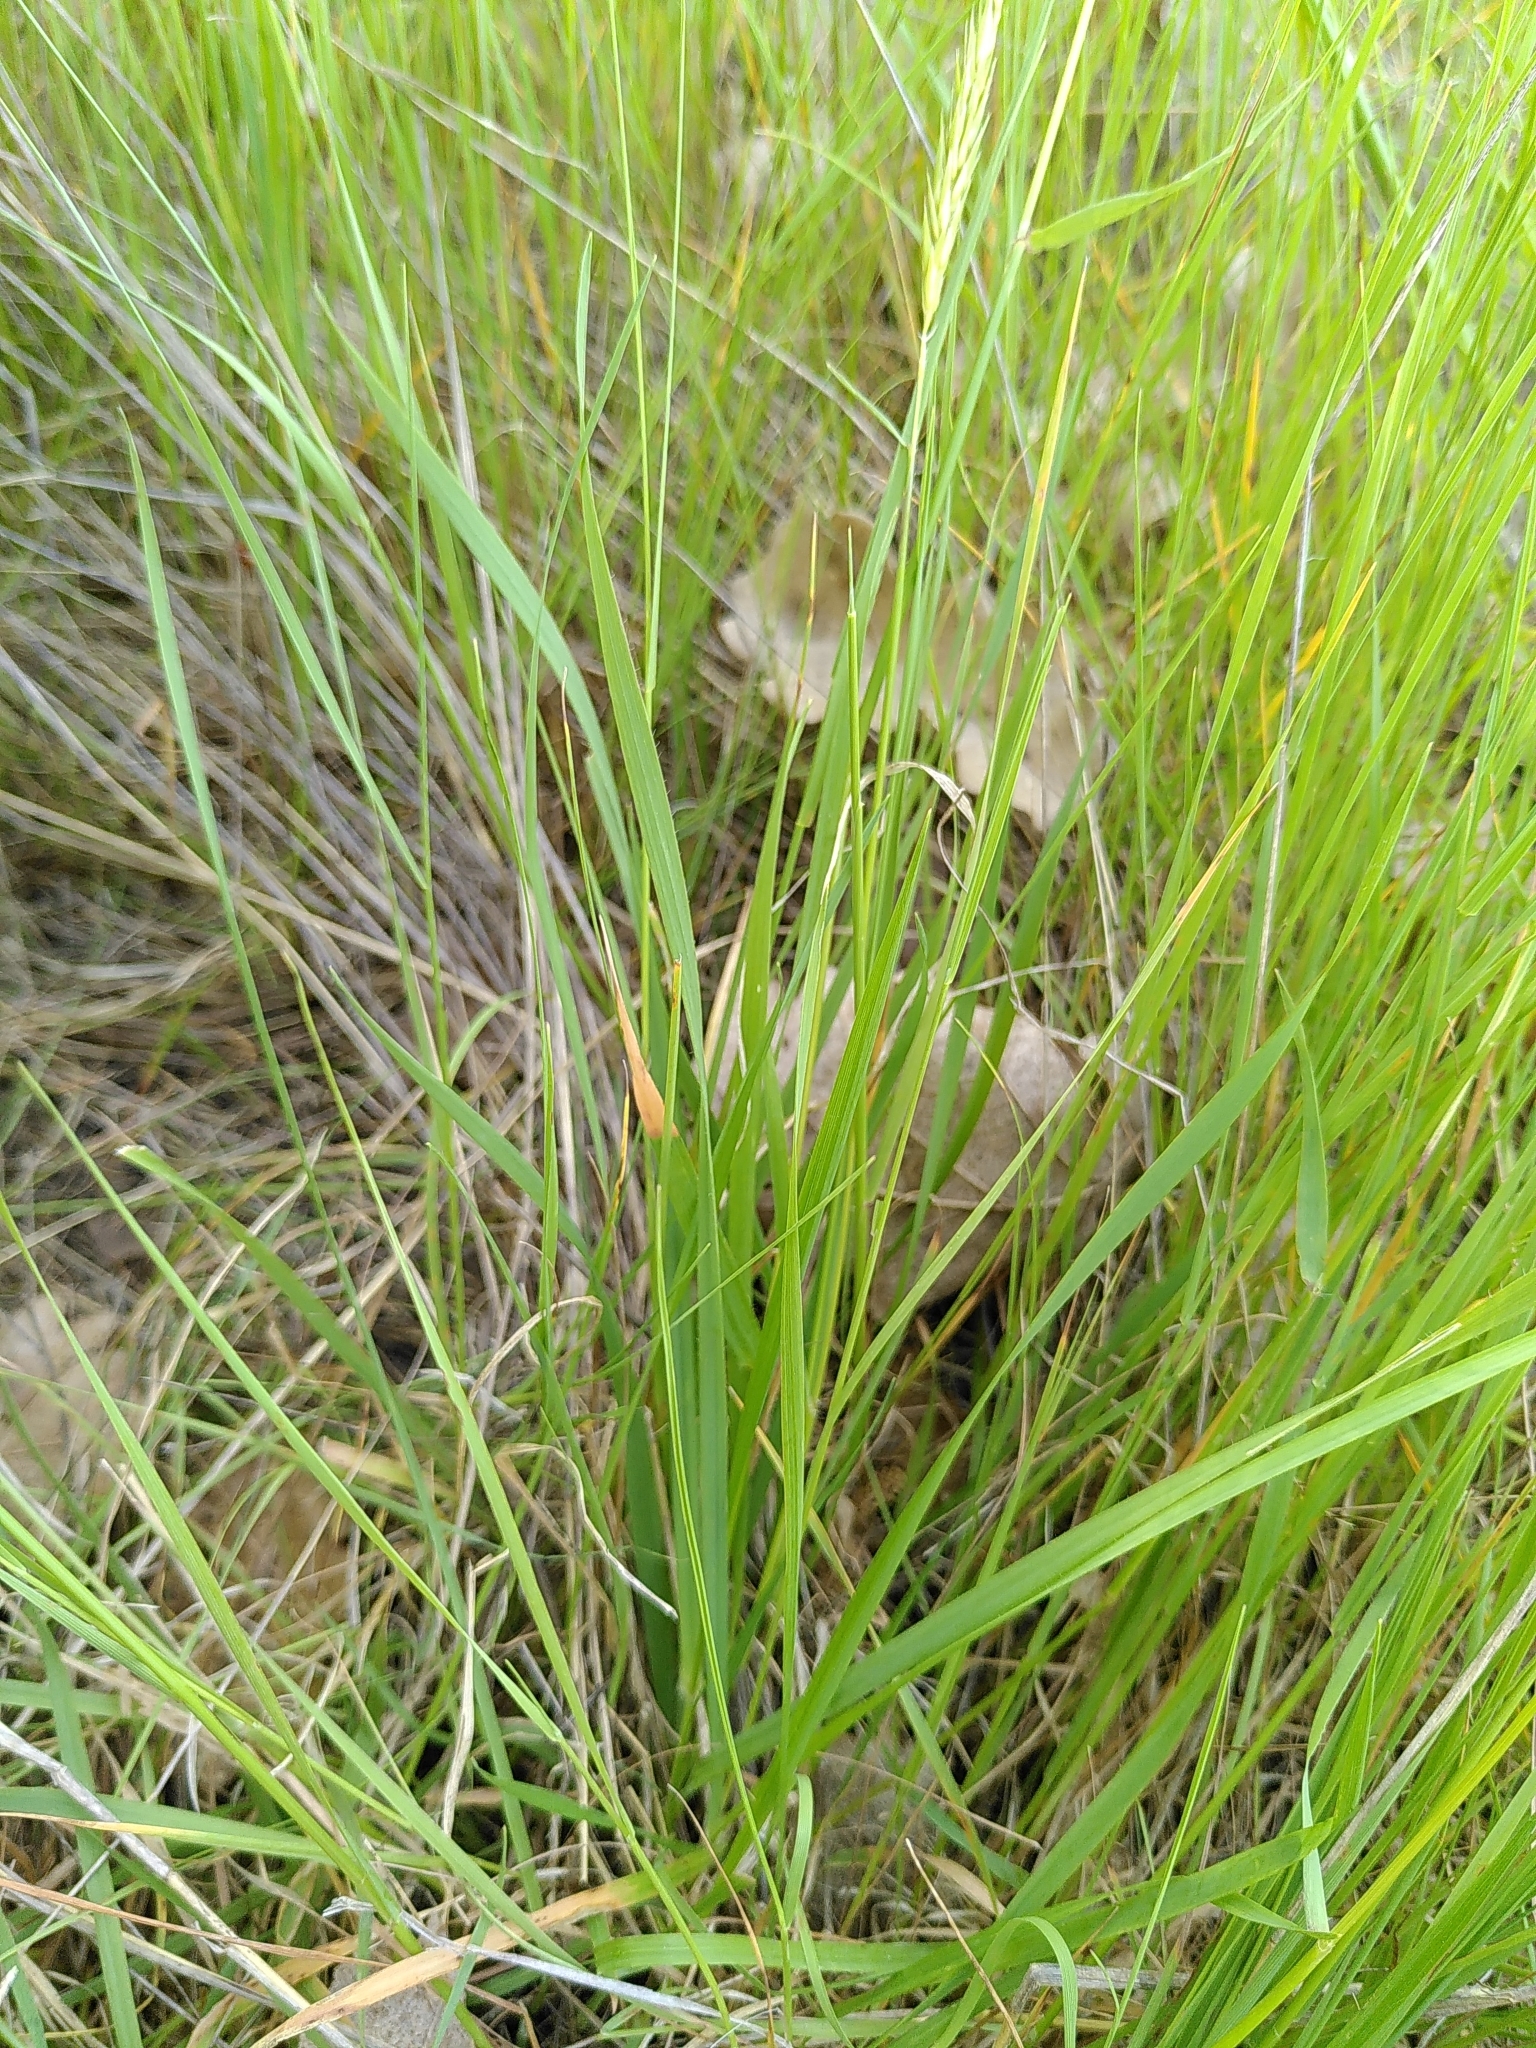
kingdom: Plantae
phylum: Tracheophyta
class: Liliopsida
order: Poales
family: Poaceae
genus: Anthoxanthum
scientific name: Anthoxanthum odoratum
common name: Sweet vernalgrass
